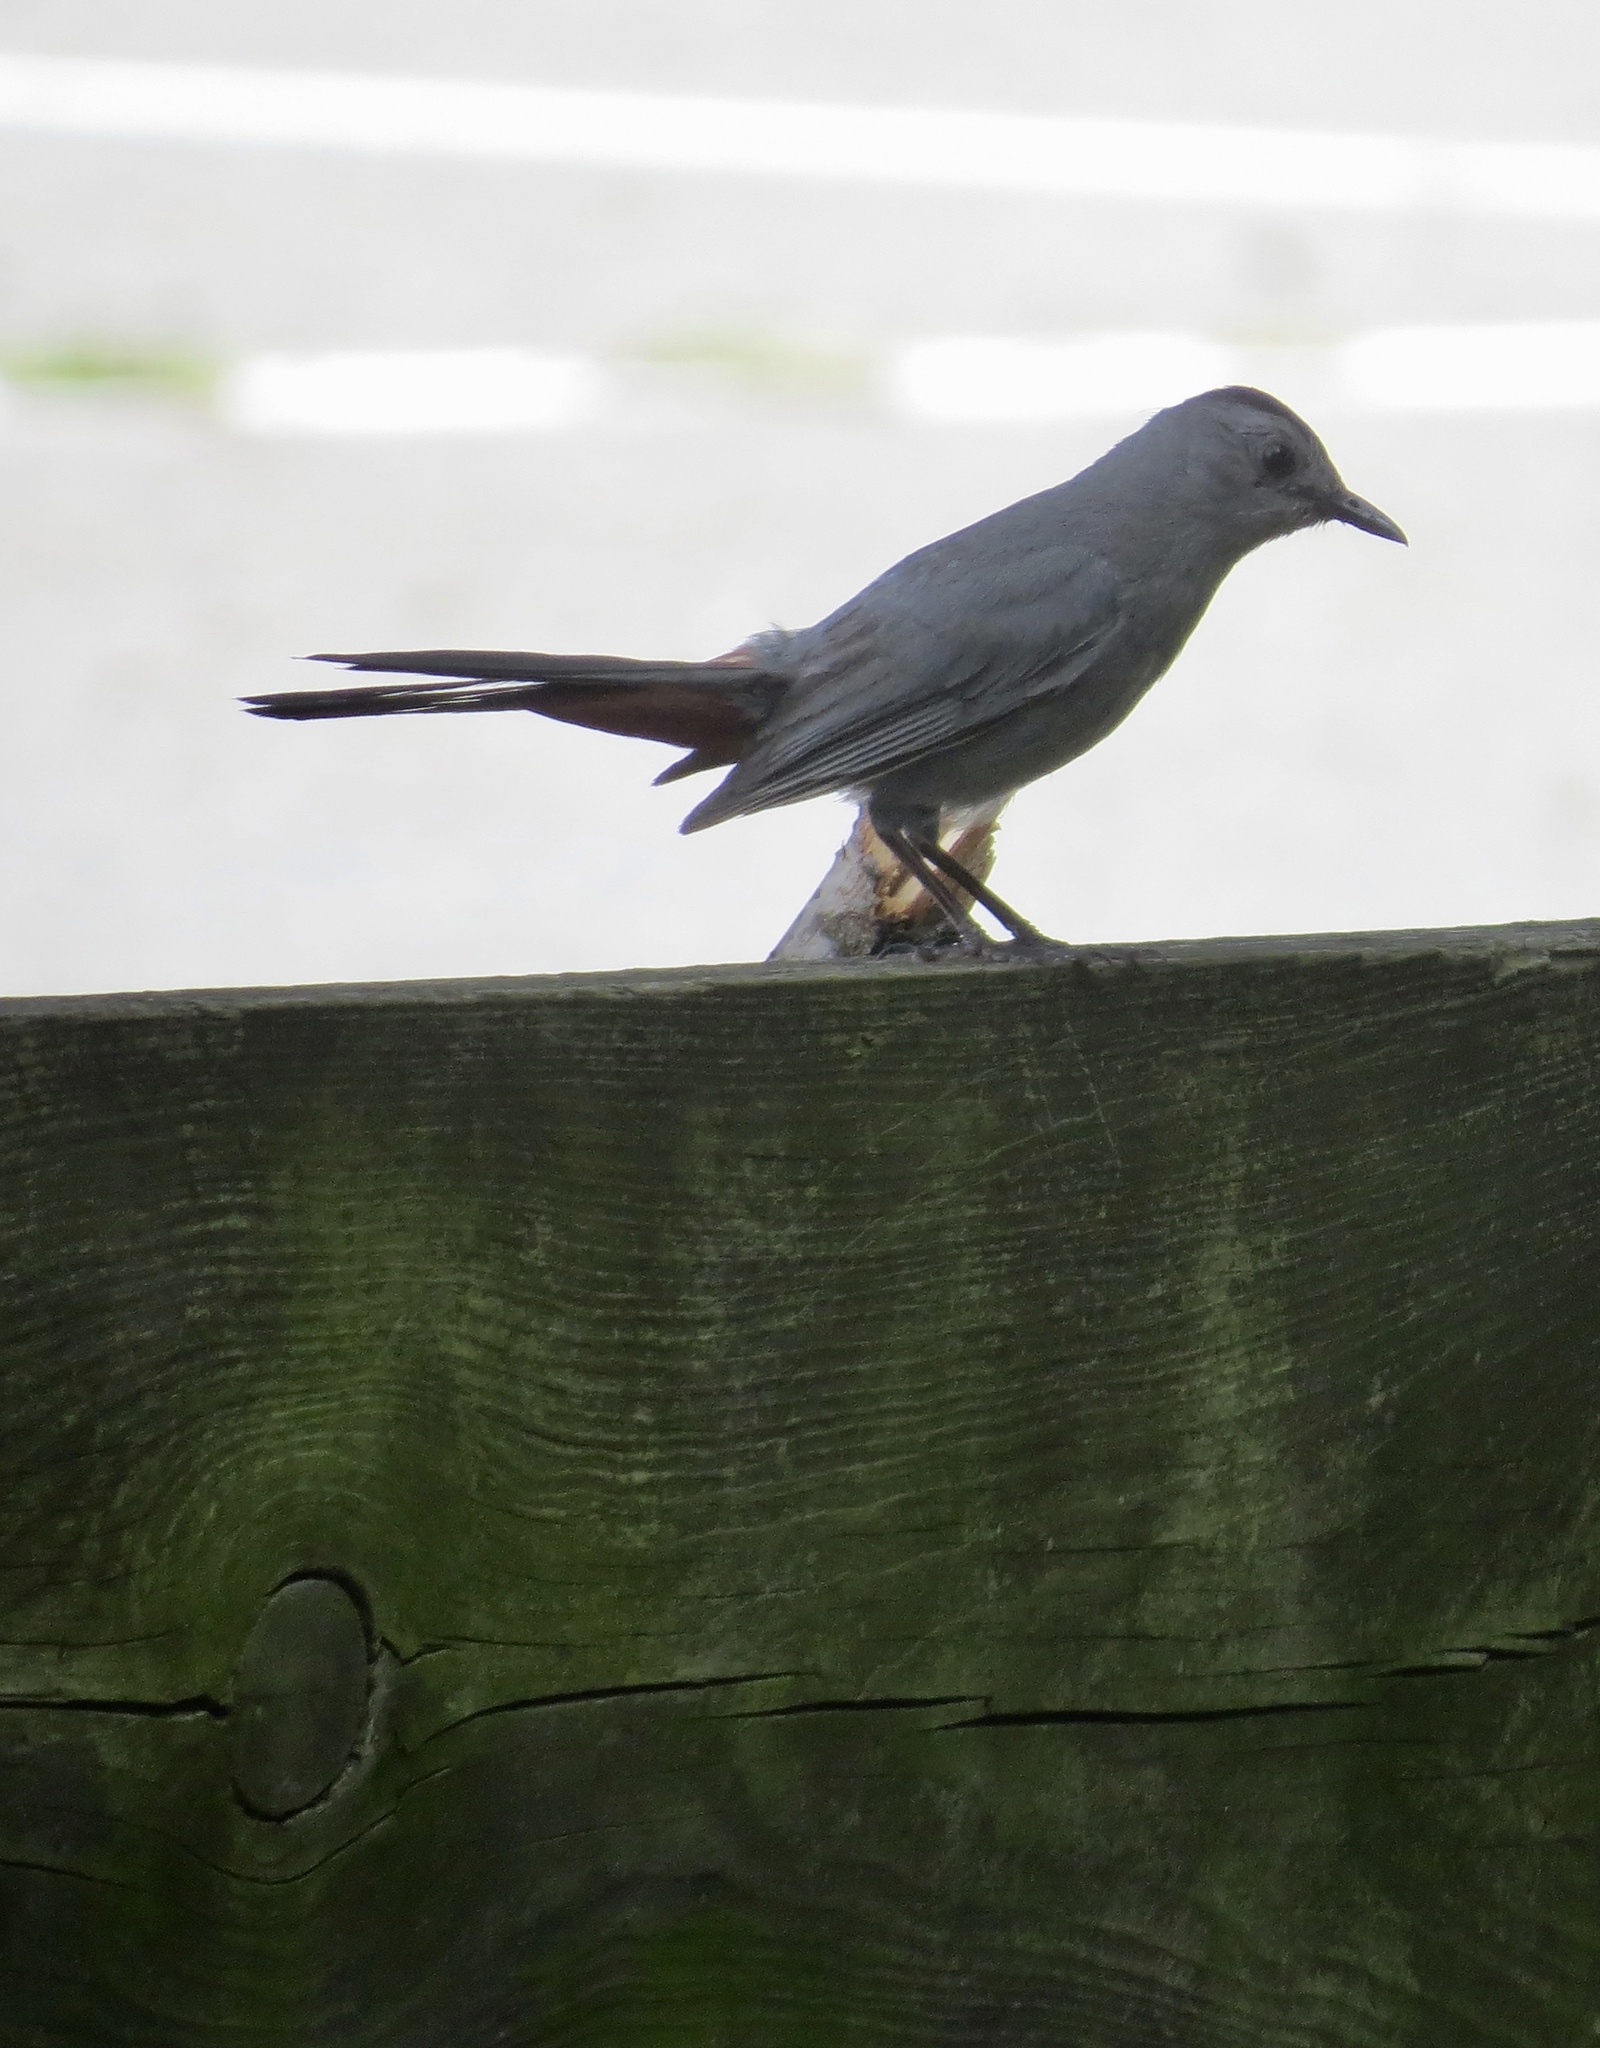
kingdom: Animalia
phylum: Chordata
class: Aves
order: Passeriformes
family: Mimidae
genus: Dumetella
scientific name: Dumetella carolinensis
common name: Gray catbird
